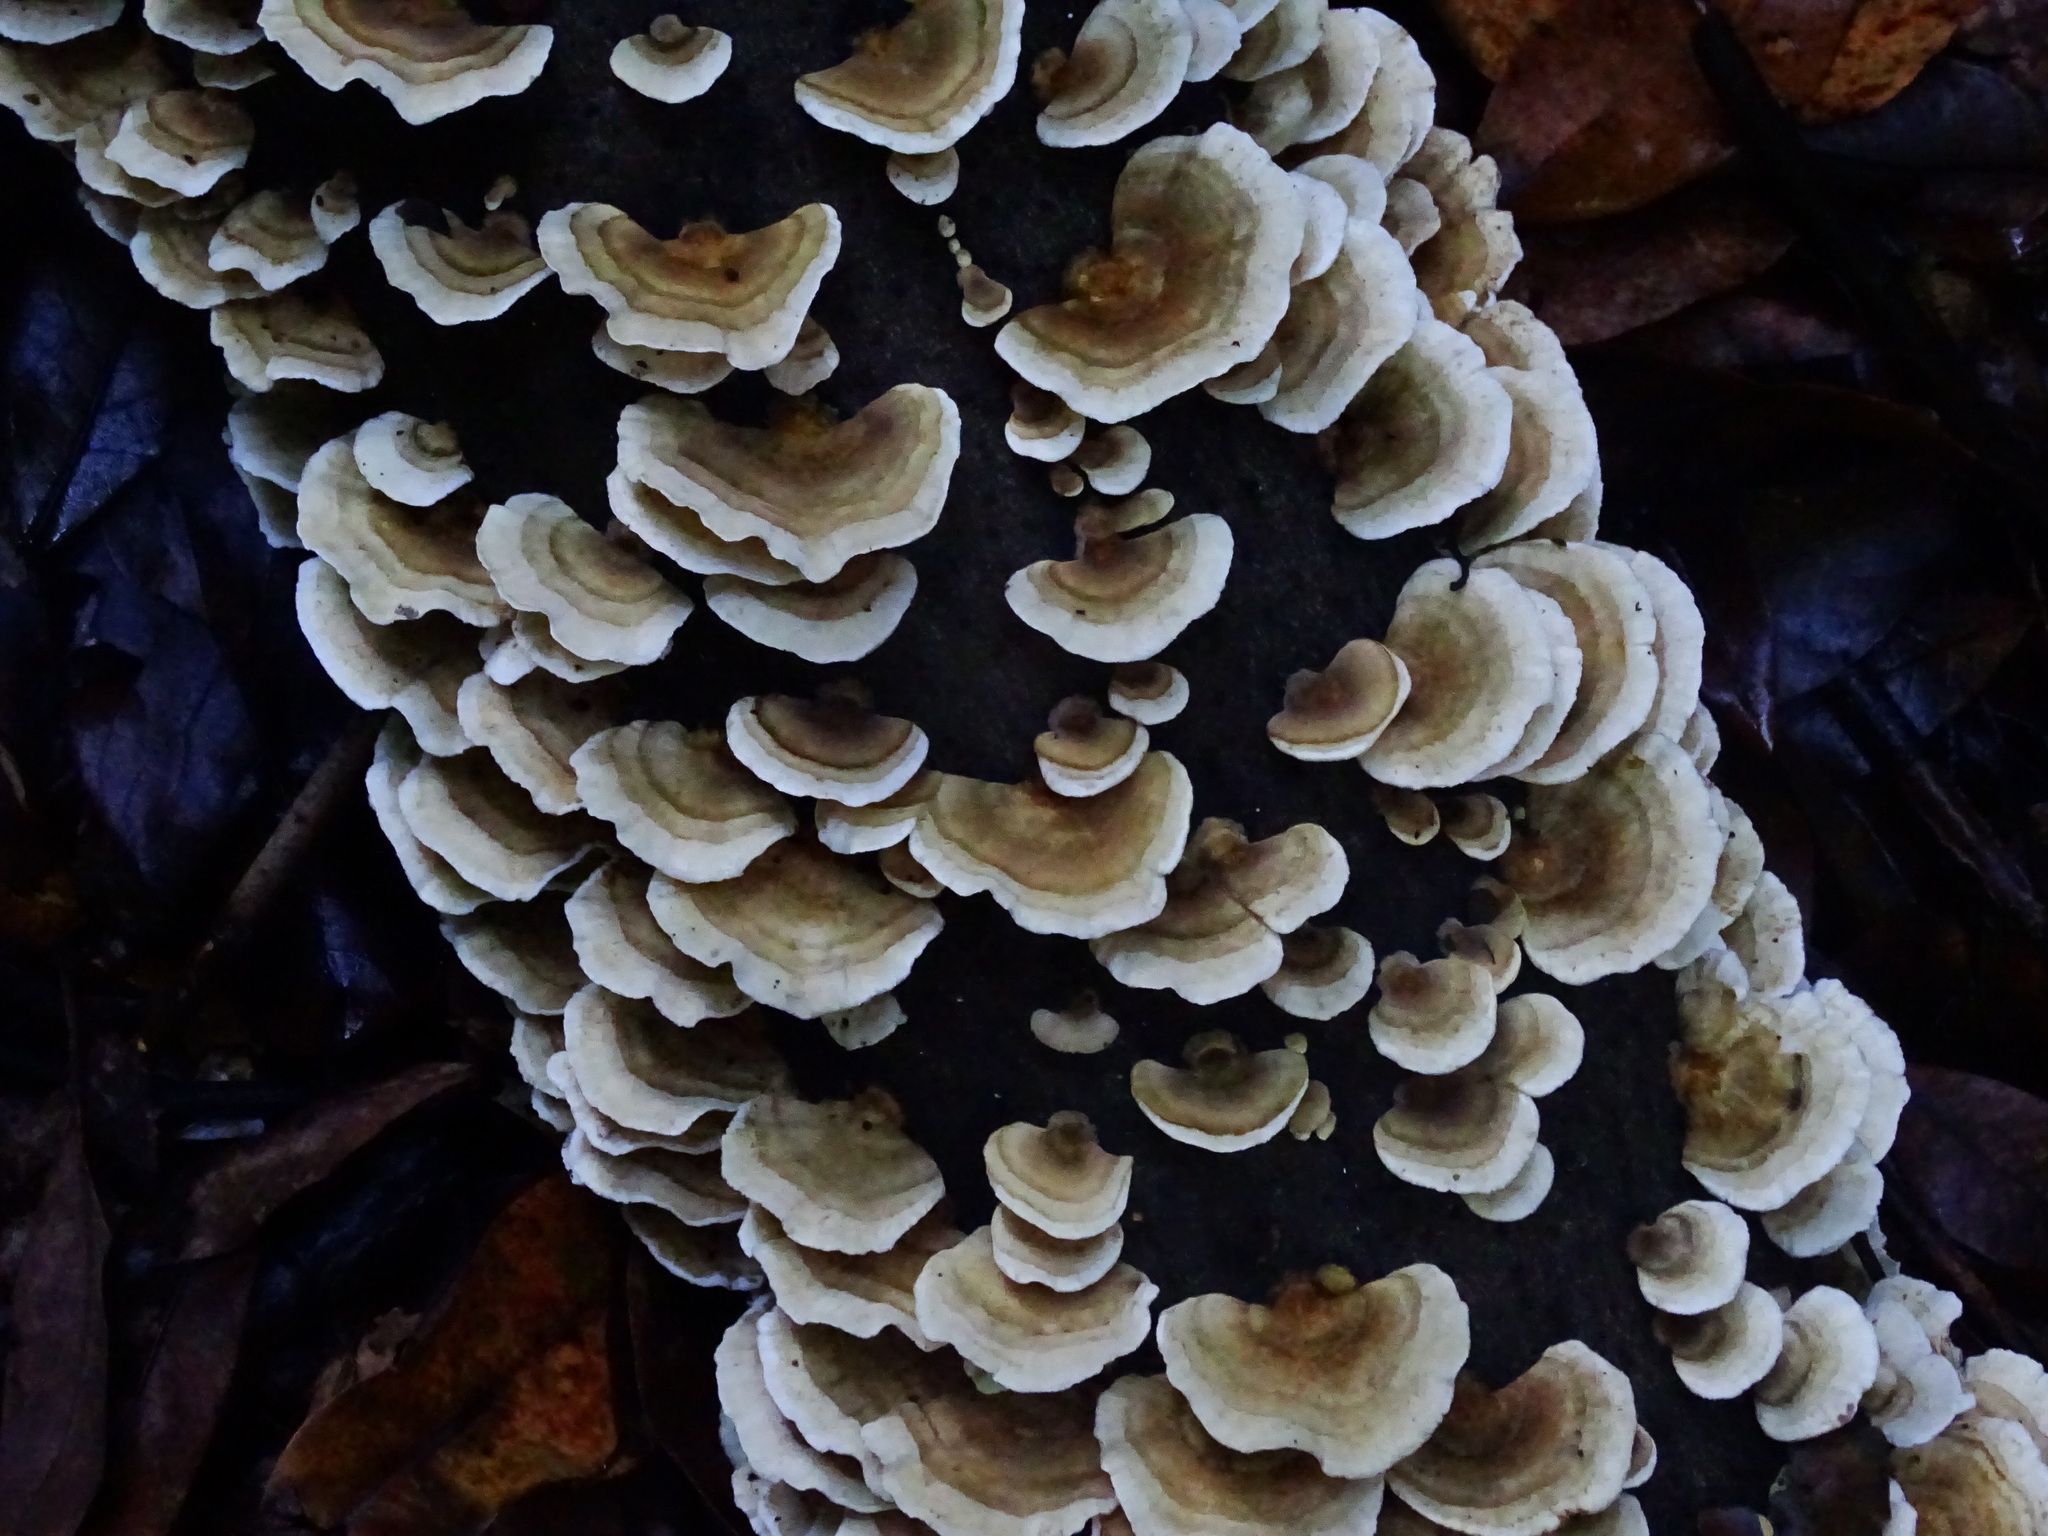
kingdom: Fungi
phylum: Basidiomycota
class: Agaricomycetes
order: Polyporales
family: Polyporaceae
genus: Trametes
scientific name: Trametes versicolor
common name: Turkeytail
